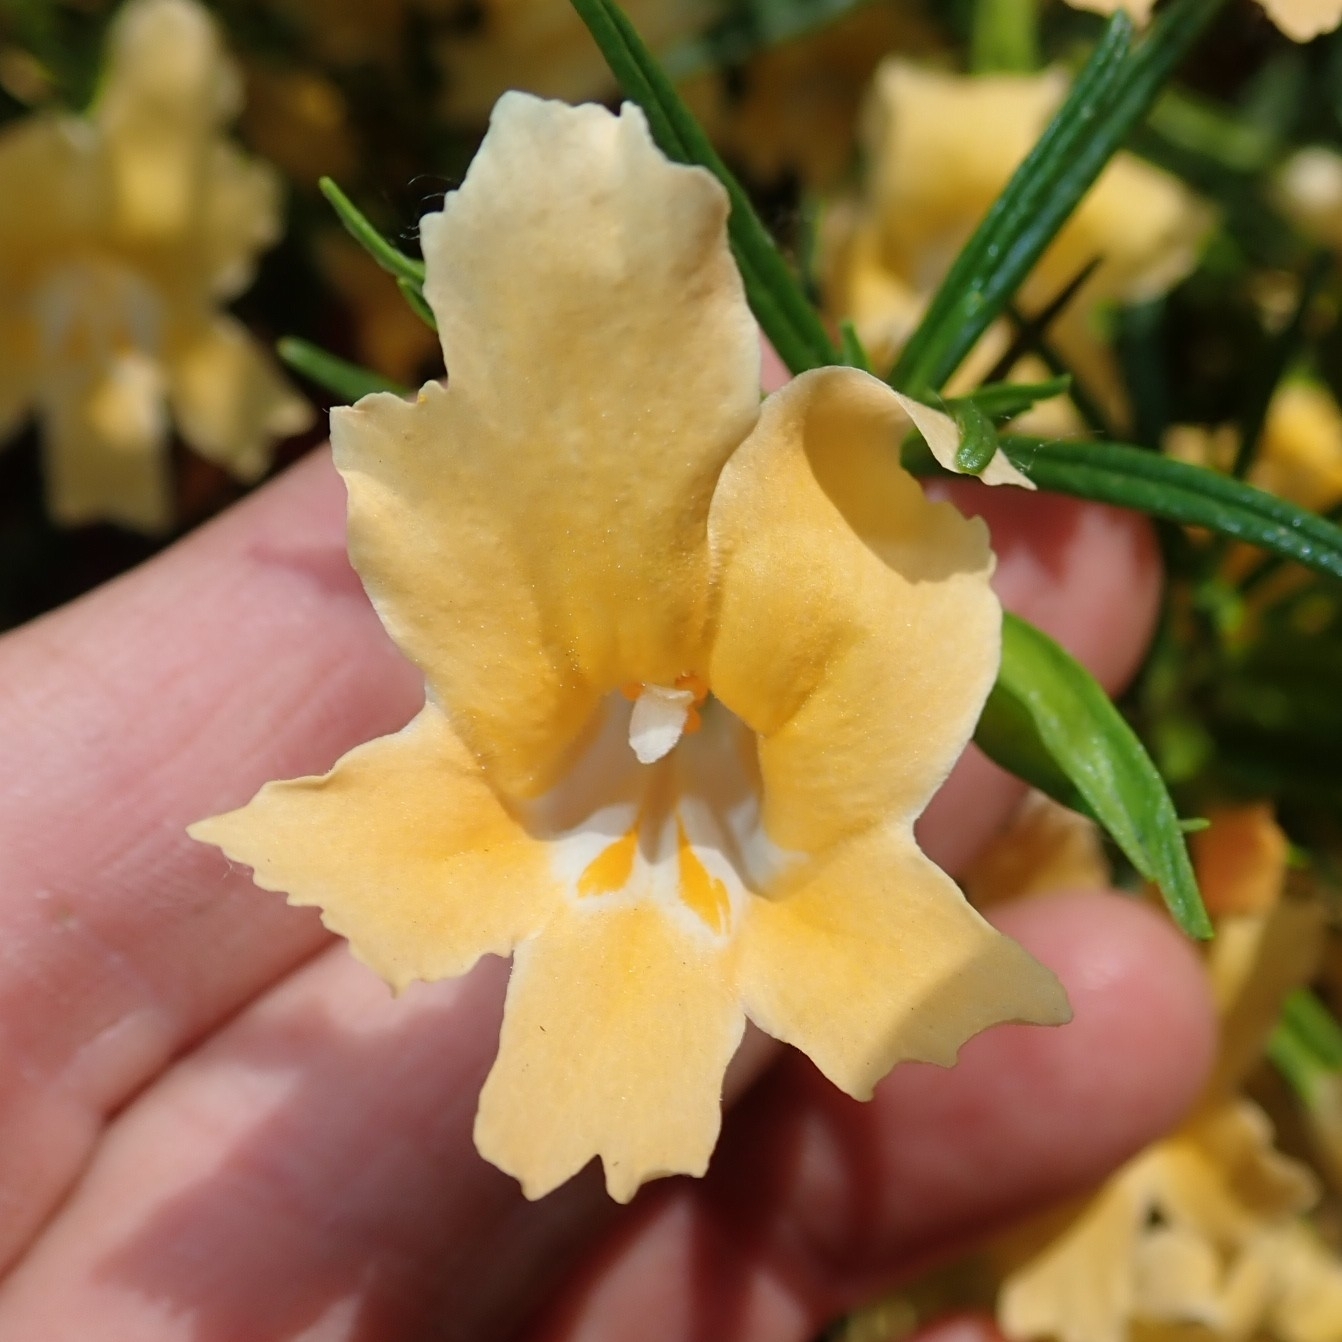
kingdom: Plantae
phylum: Tracheophyta
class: Magnoliopsida
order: Lamiales
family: Phrymaceae
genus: Diplacus
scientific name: Diplacus australis
